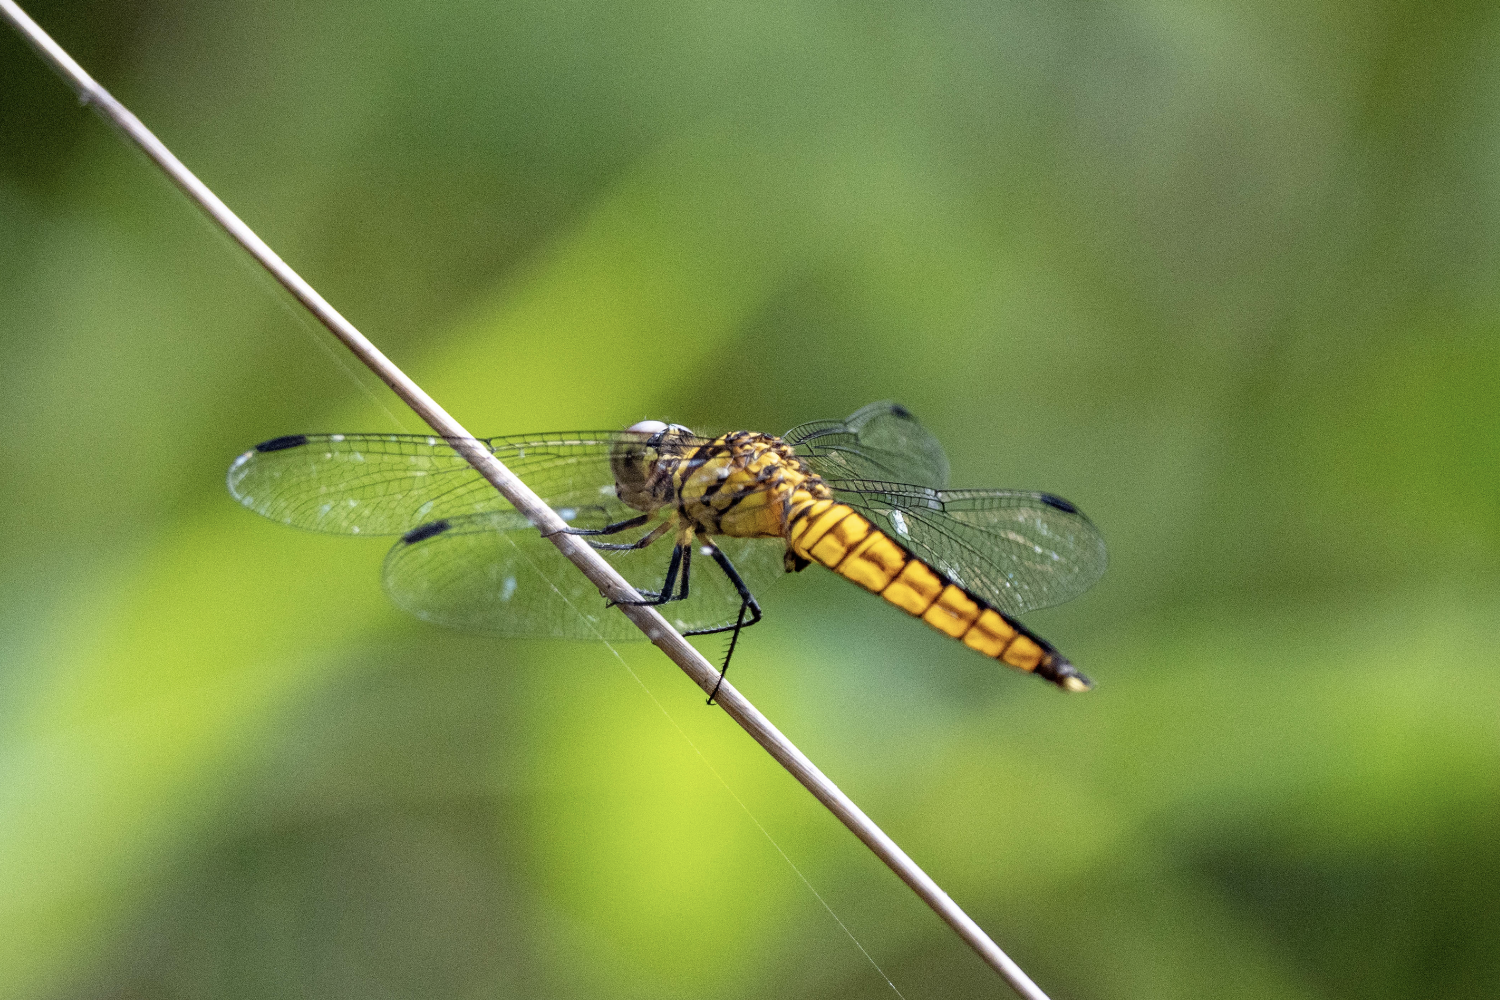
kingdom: Animalia
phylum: Arthropoda
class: Insecta
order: Odonata
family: Libellulidae
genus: Lyriothemis
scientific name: Lyriothemis elegantissima
